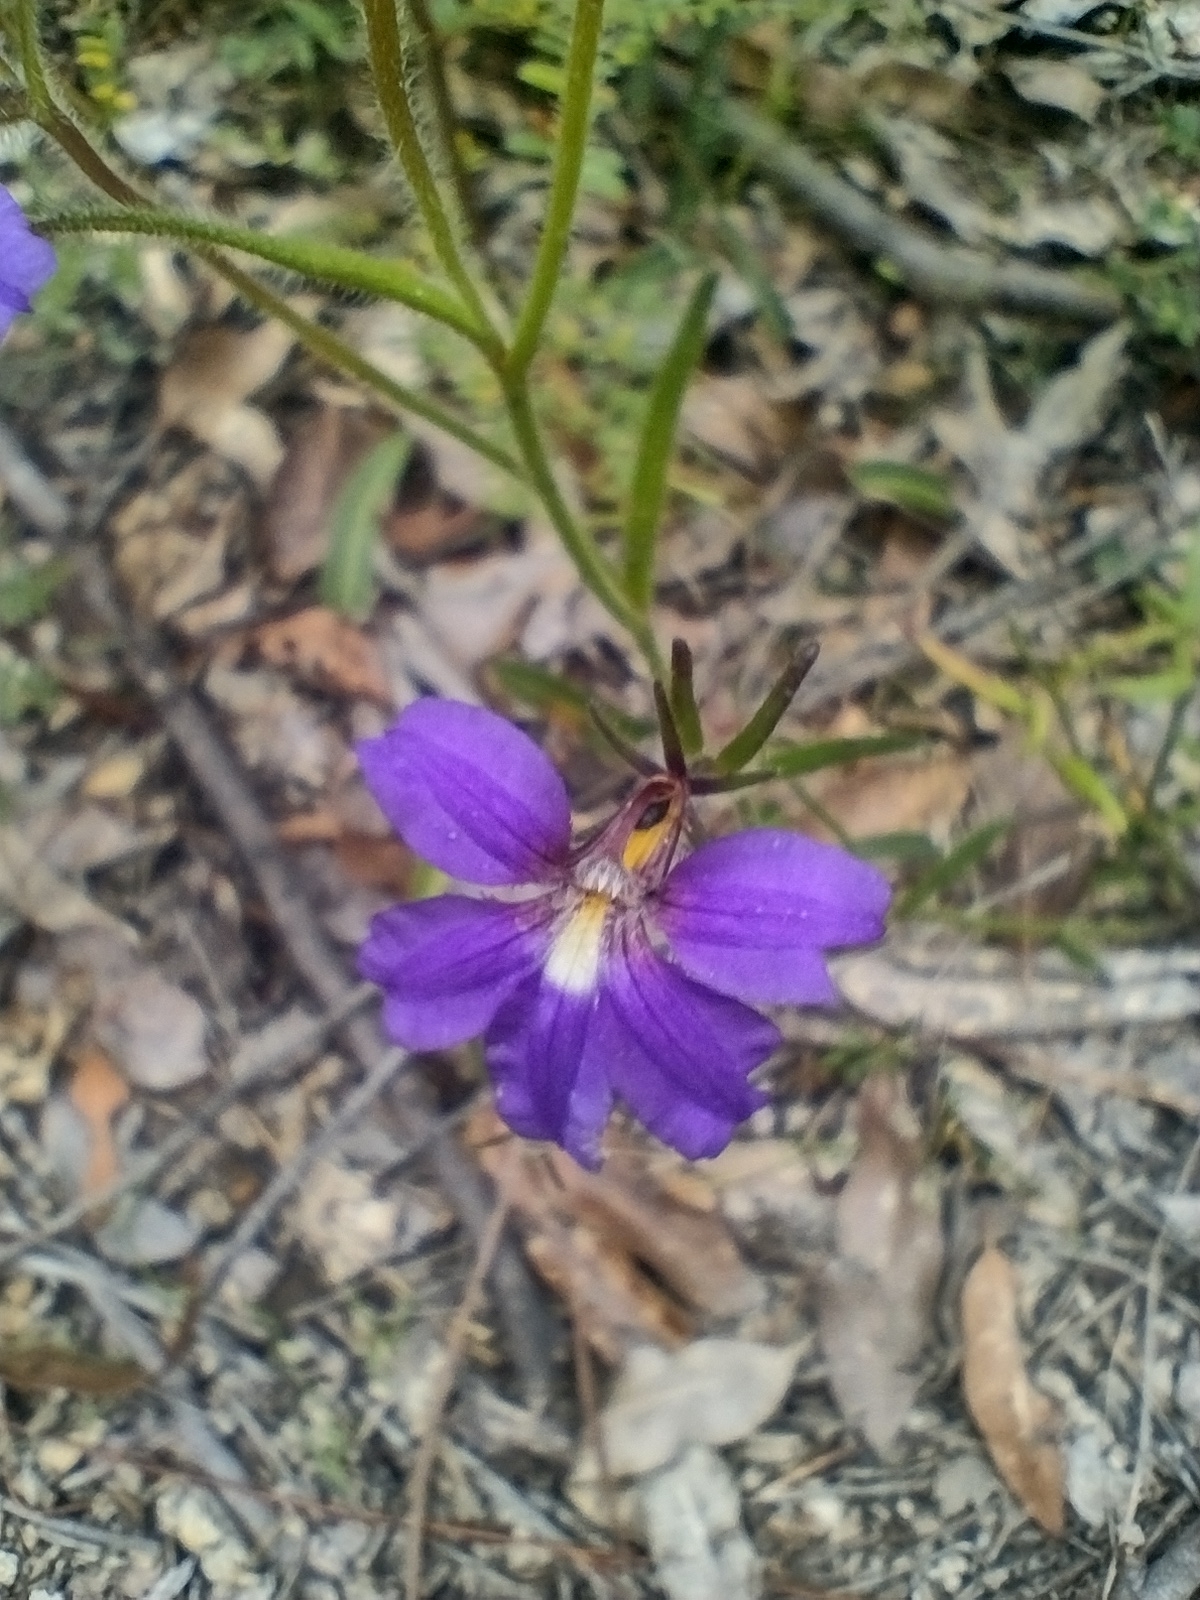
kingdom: Plantae
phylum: Tracheophyta
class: Magnoliopsida
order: Asterales
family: Goodeniaceae
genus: Scaevola
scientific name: Scaevola ramosissima
